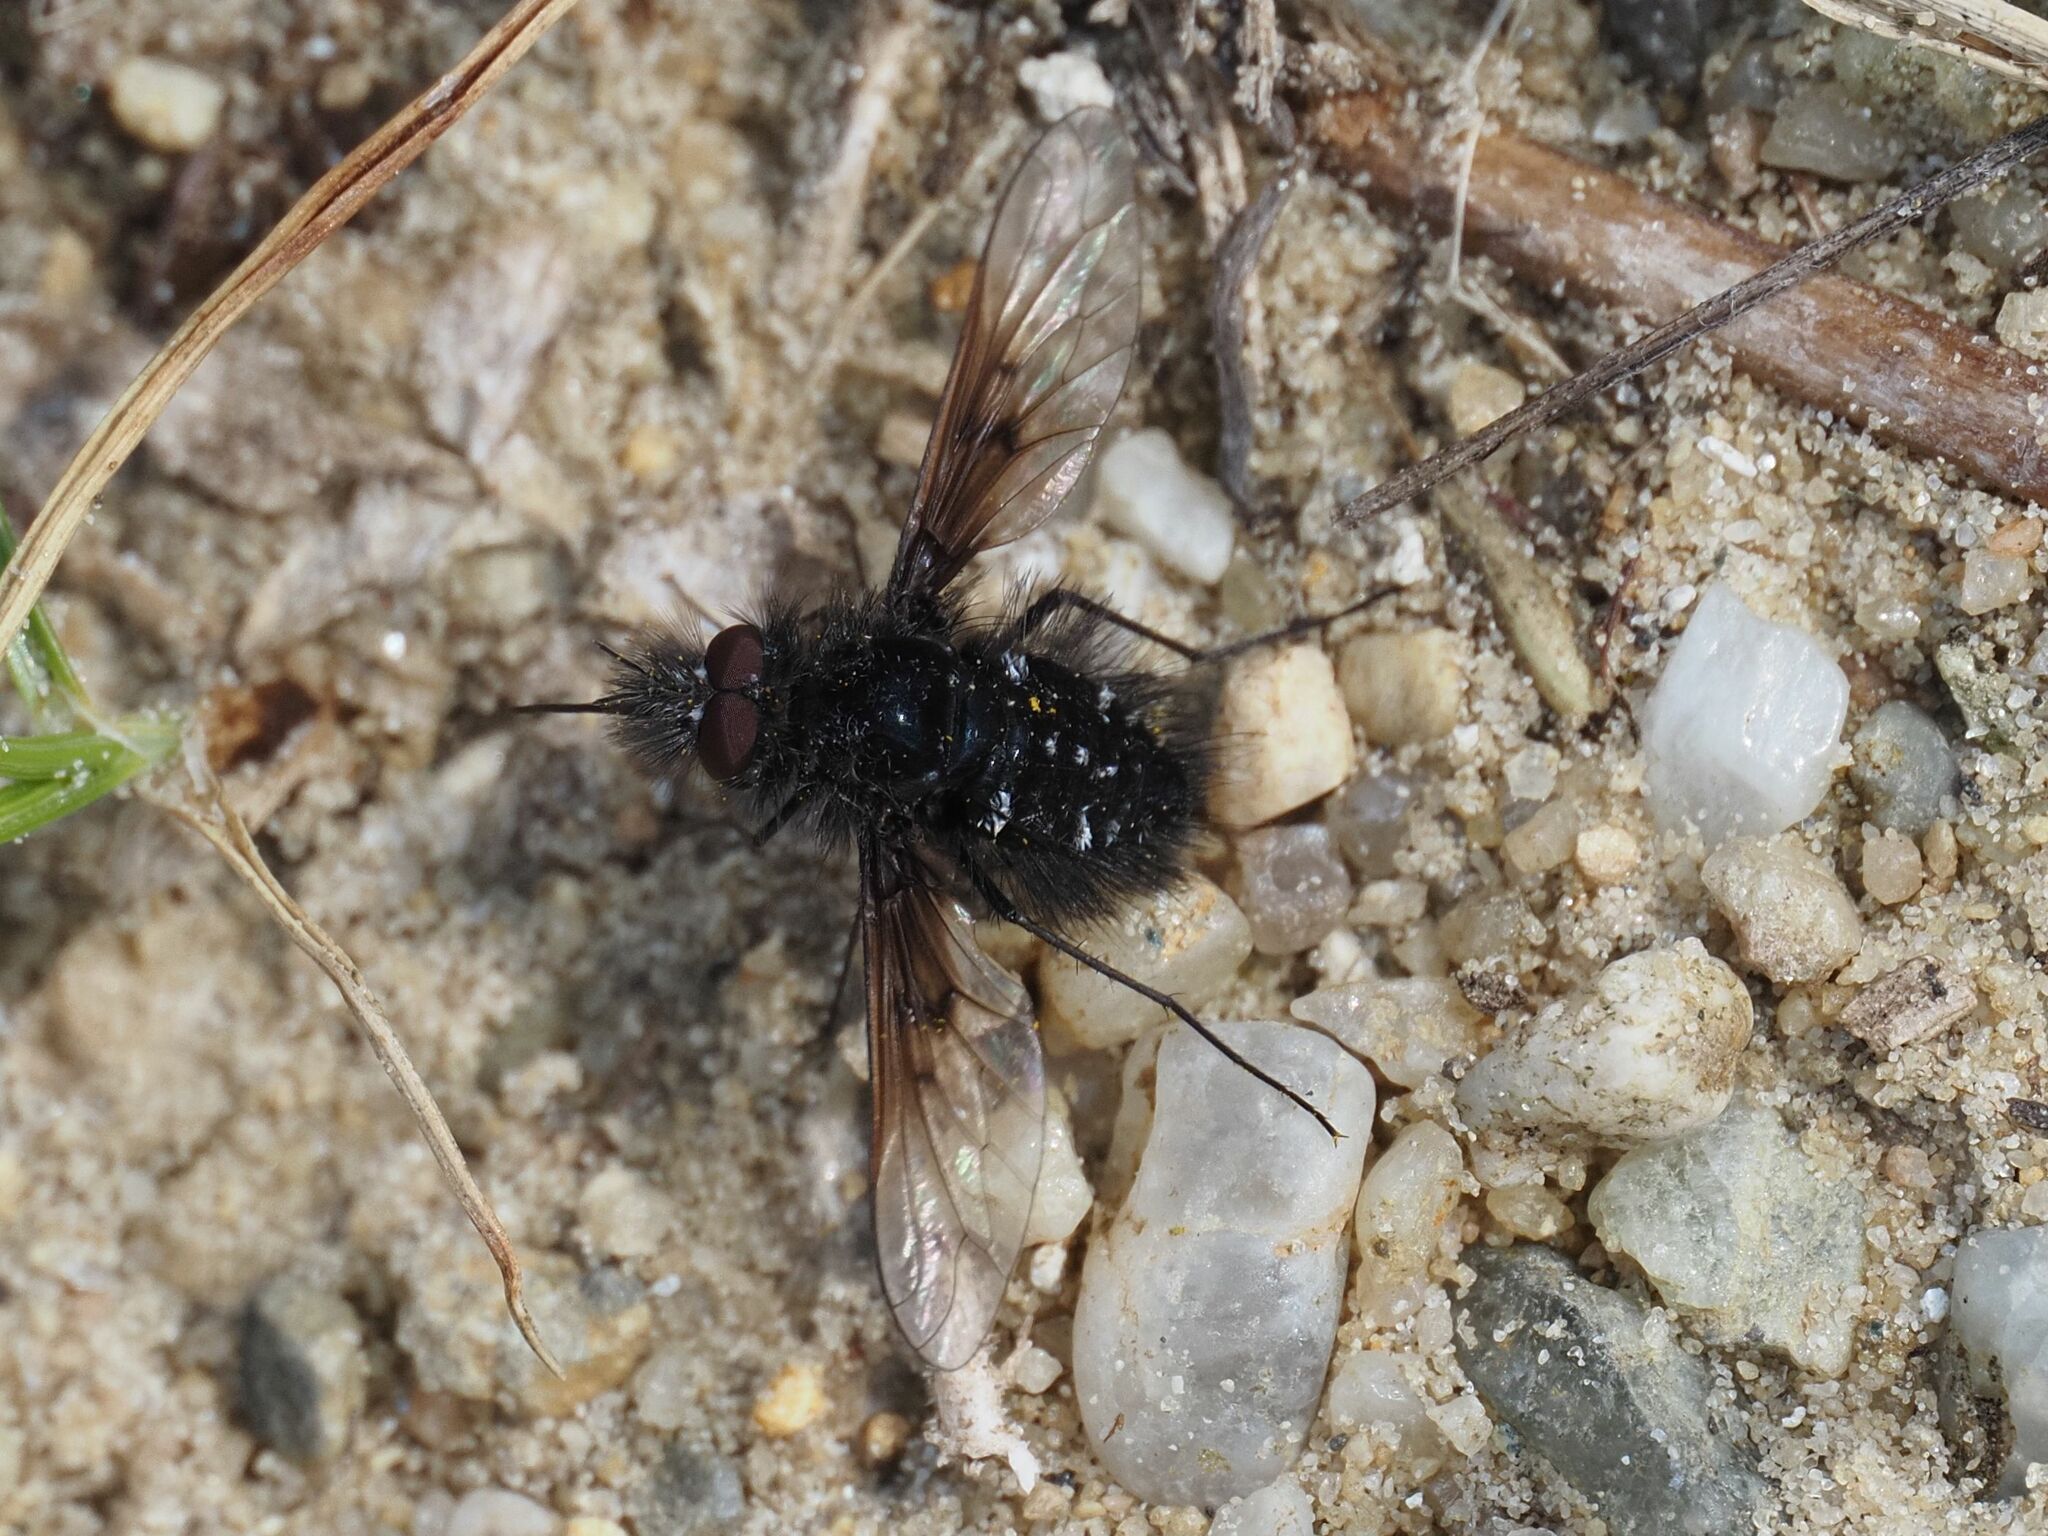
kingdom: Animalia
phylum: Arthropoda
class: Insecta
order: Diptera
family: Bombyliidae
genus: Bombylella
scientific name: Bombylella atra
